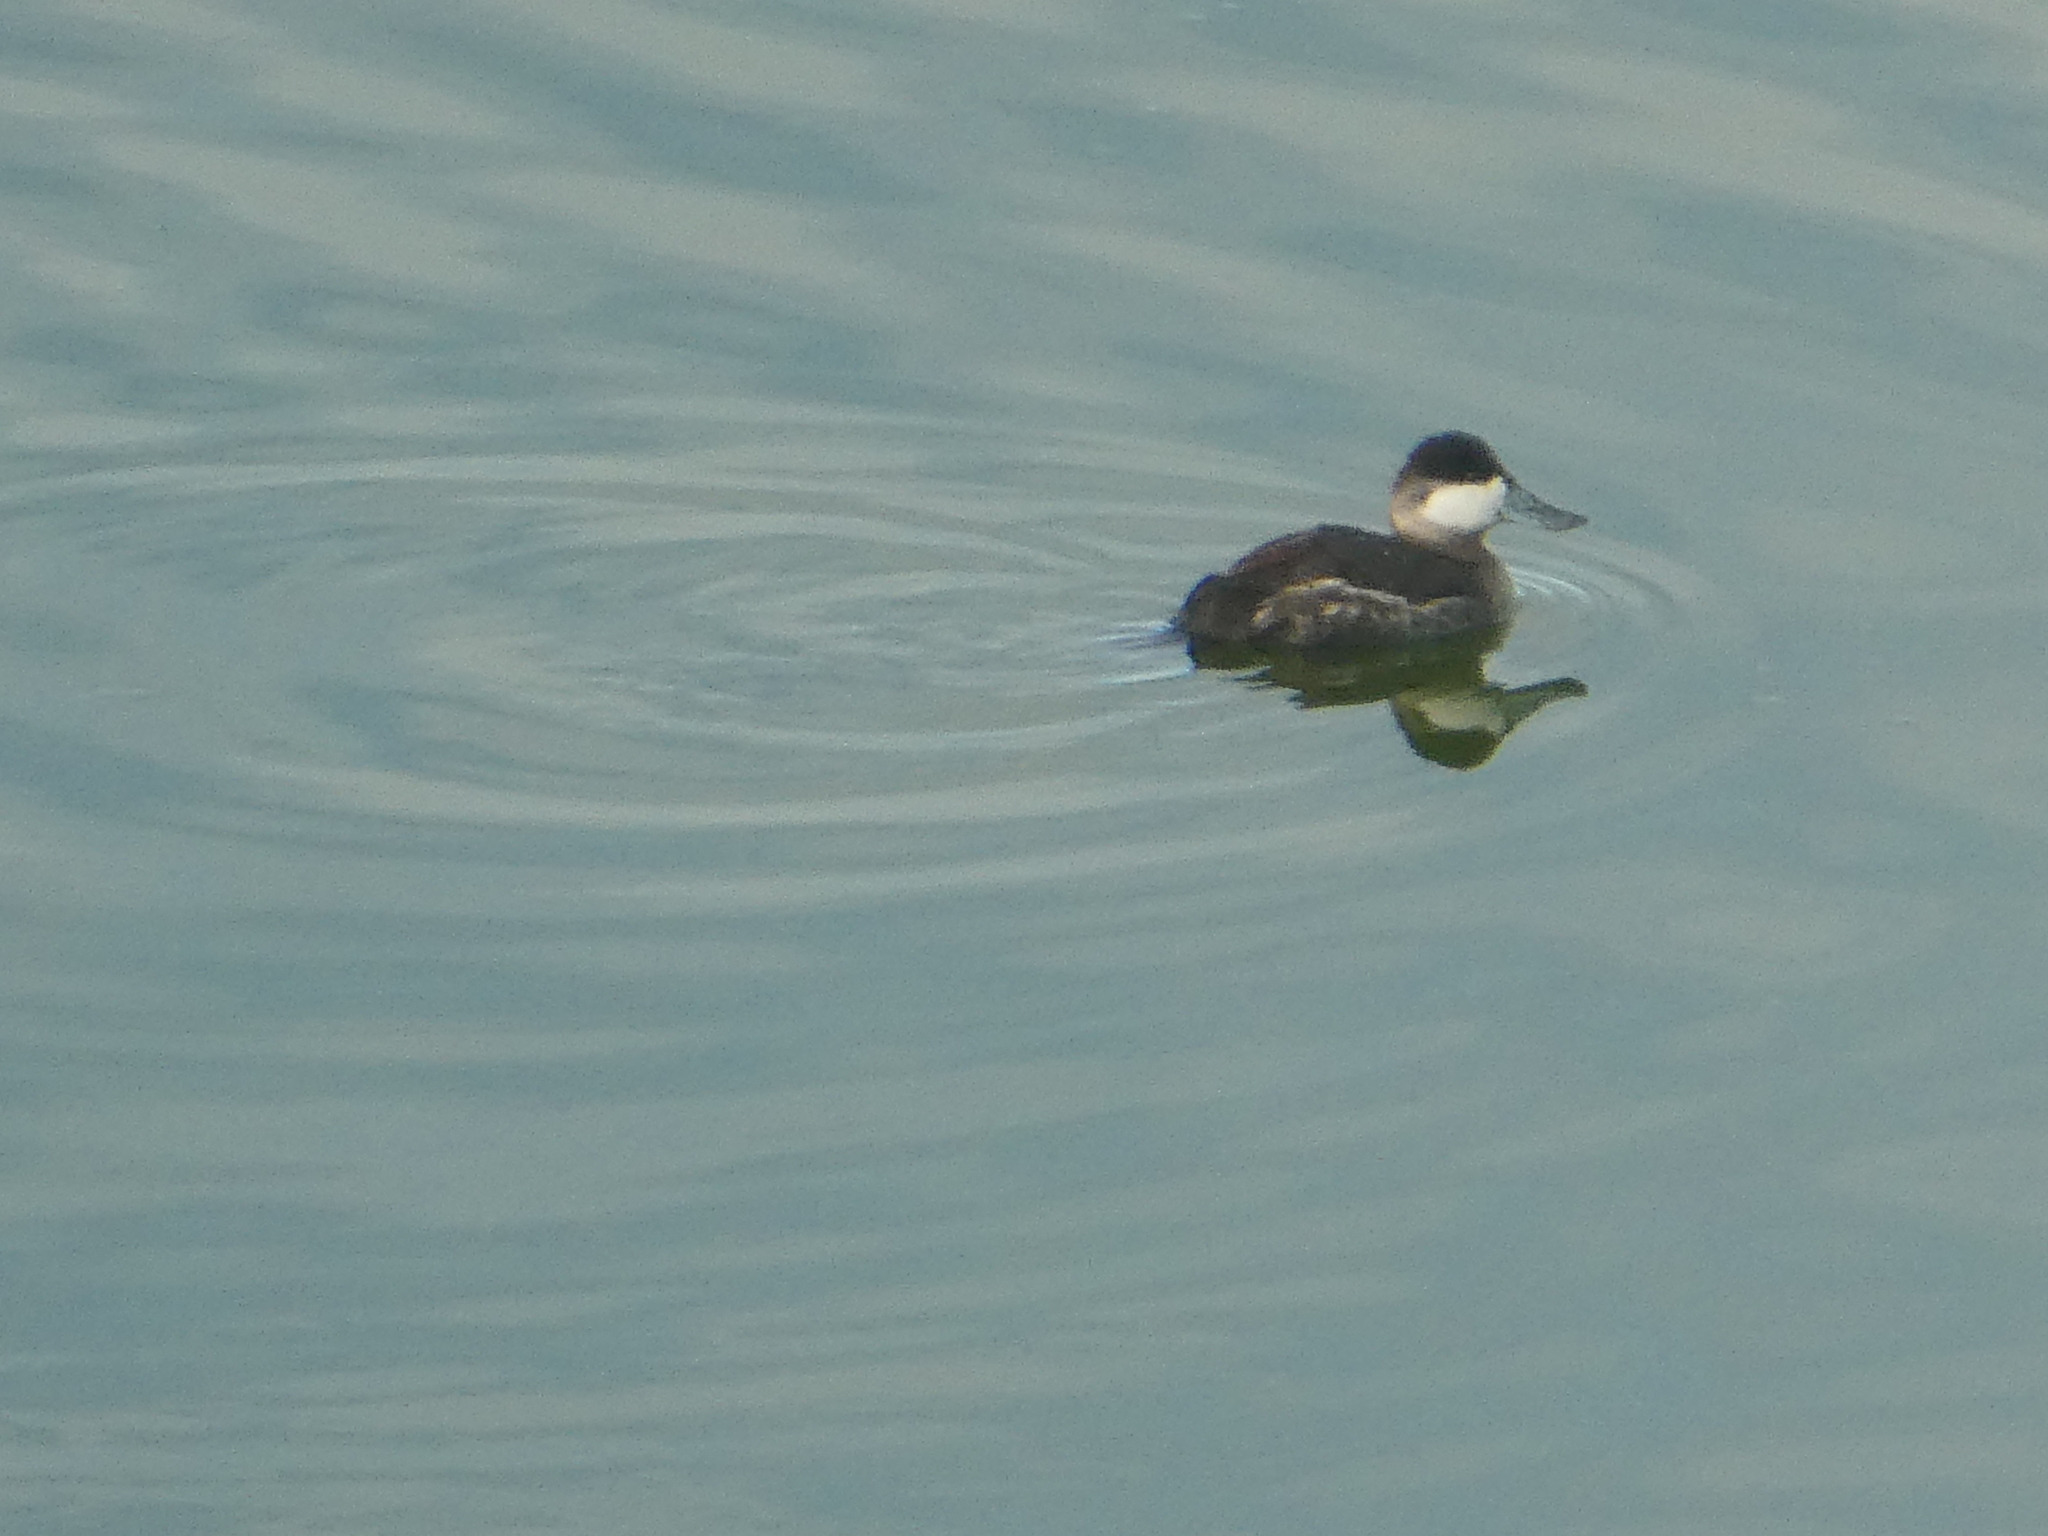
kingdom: Animalia
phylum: Chordata
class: Aves
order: Anseriformes
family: Anatidae
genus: Oxyura
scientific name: Oxyura jamaicensis
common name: Ruddy duck
